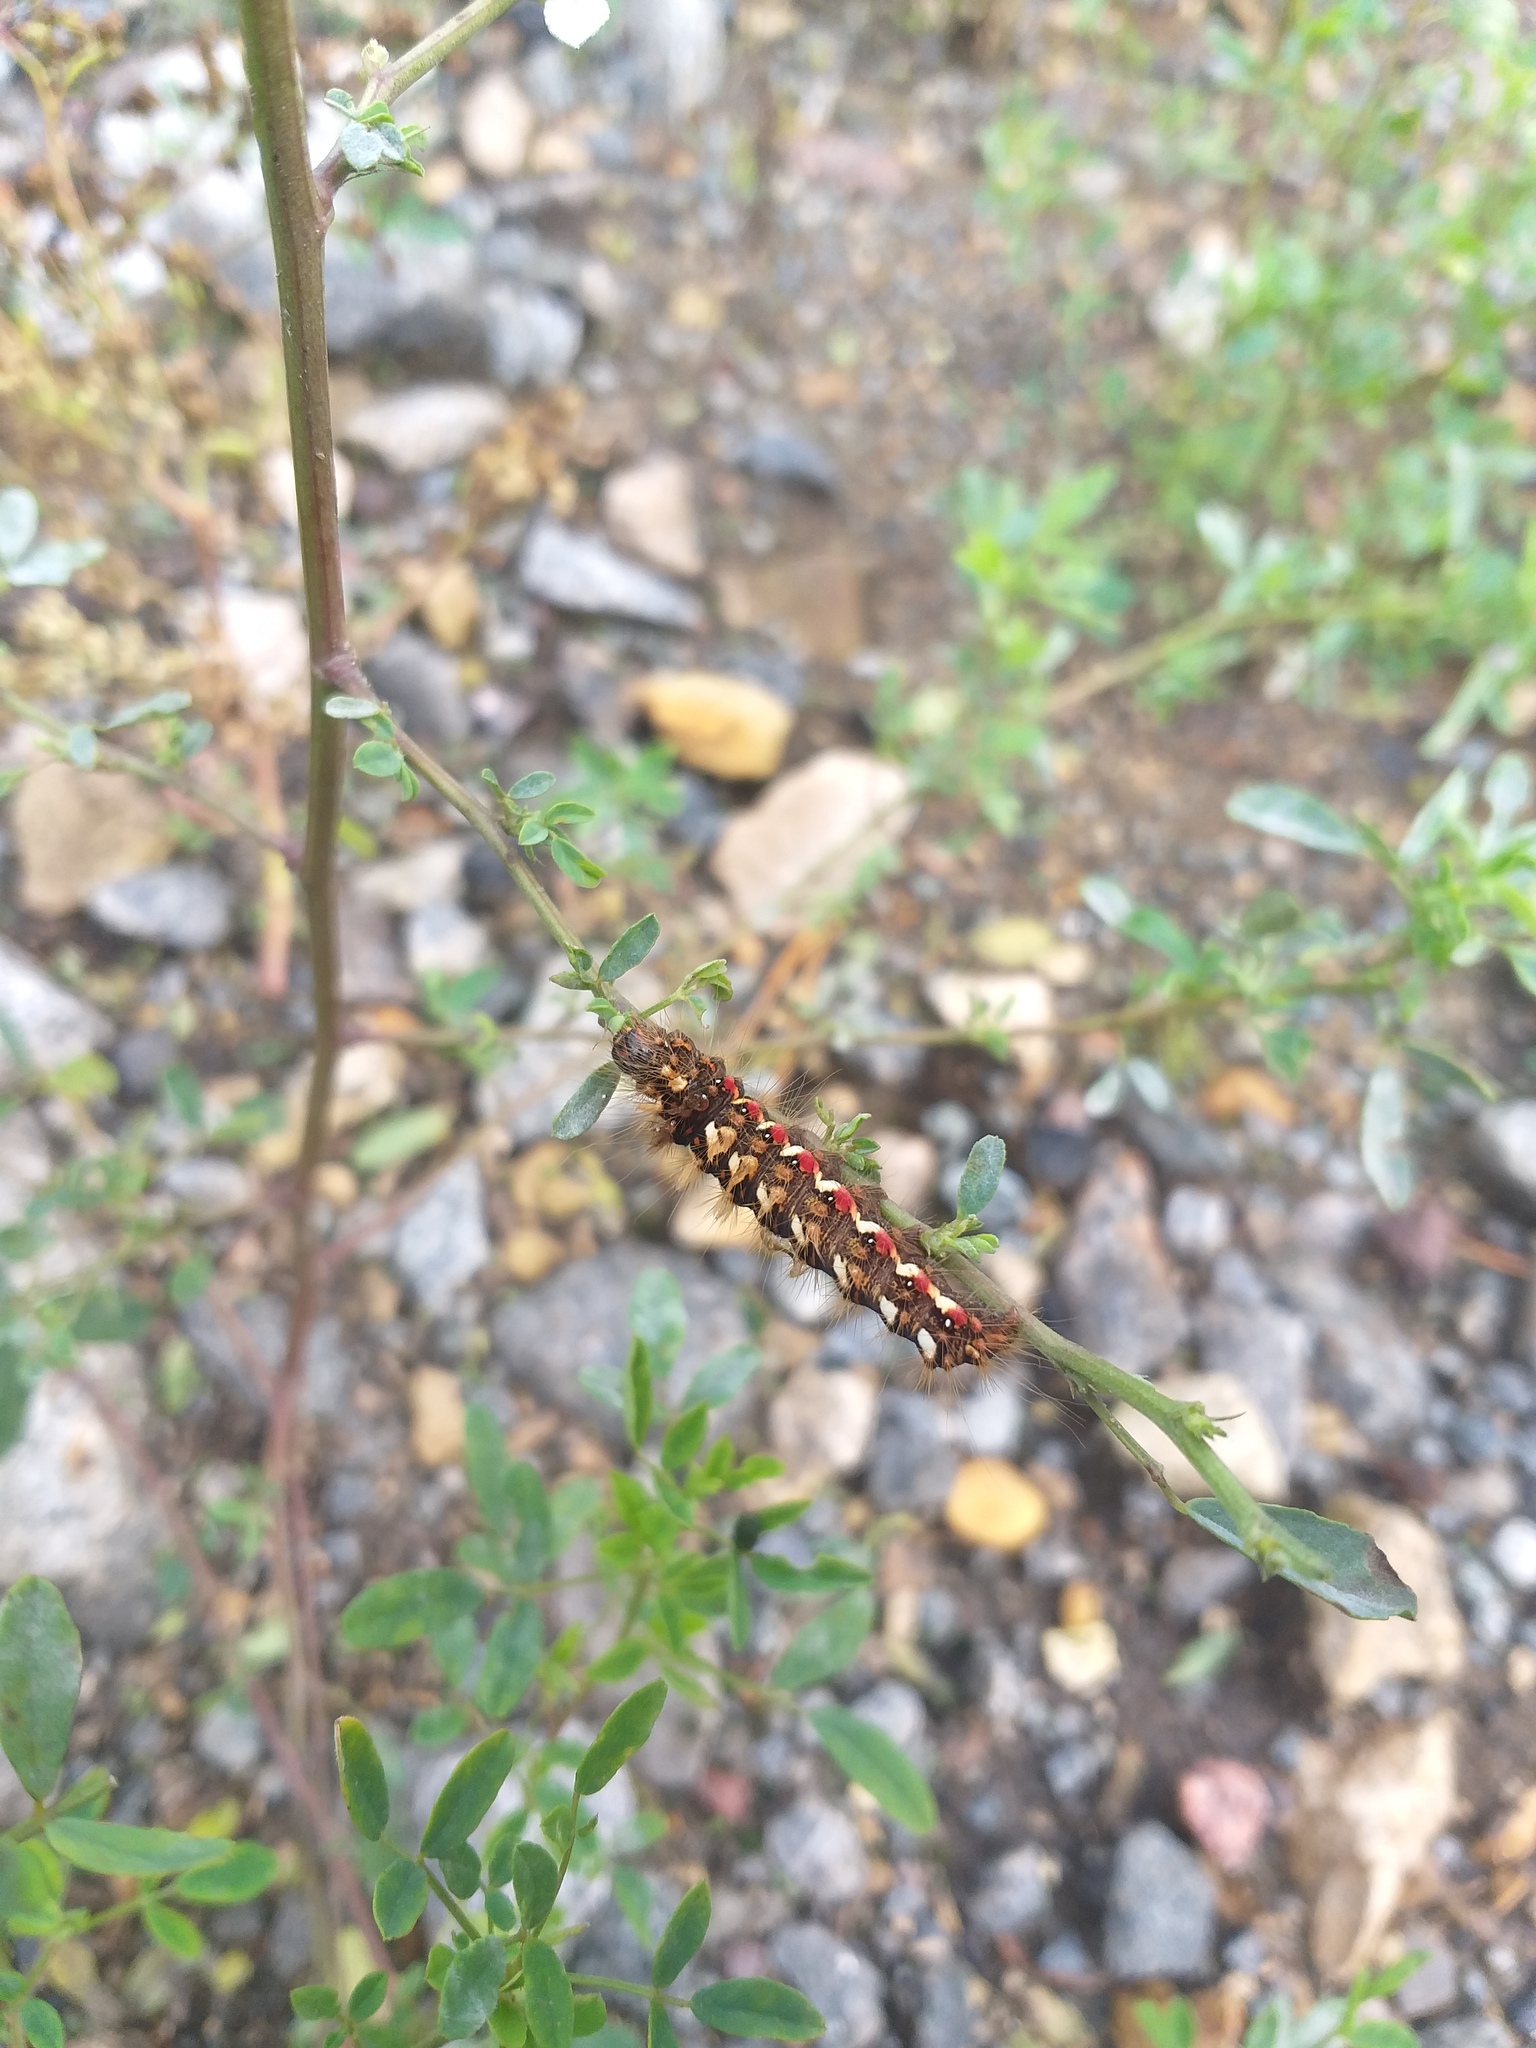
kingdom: Animalia
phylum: Arthropoda
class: Insecta
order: Lepidoptera
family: Noctuidae
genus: Acronicta
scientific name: Acronicta rumicis
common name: Knot grass
